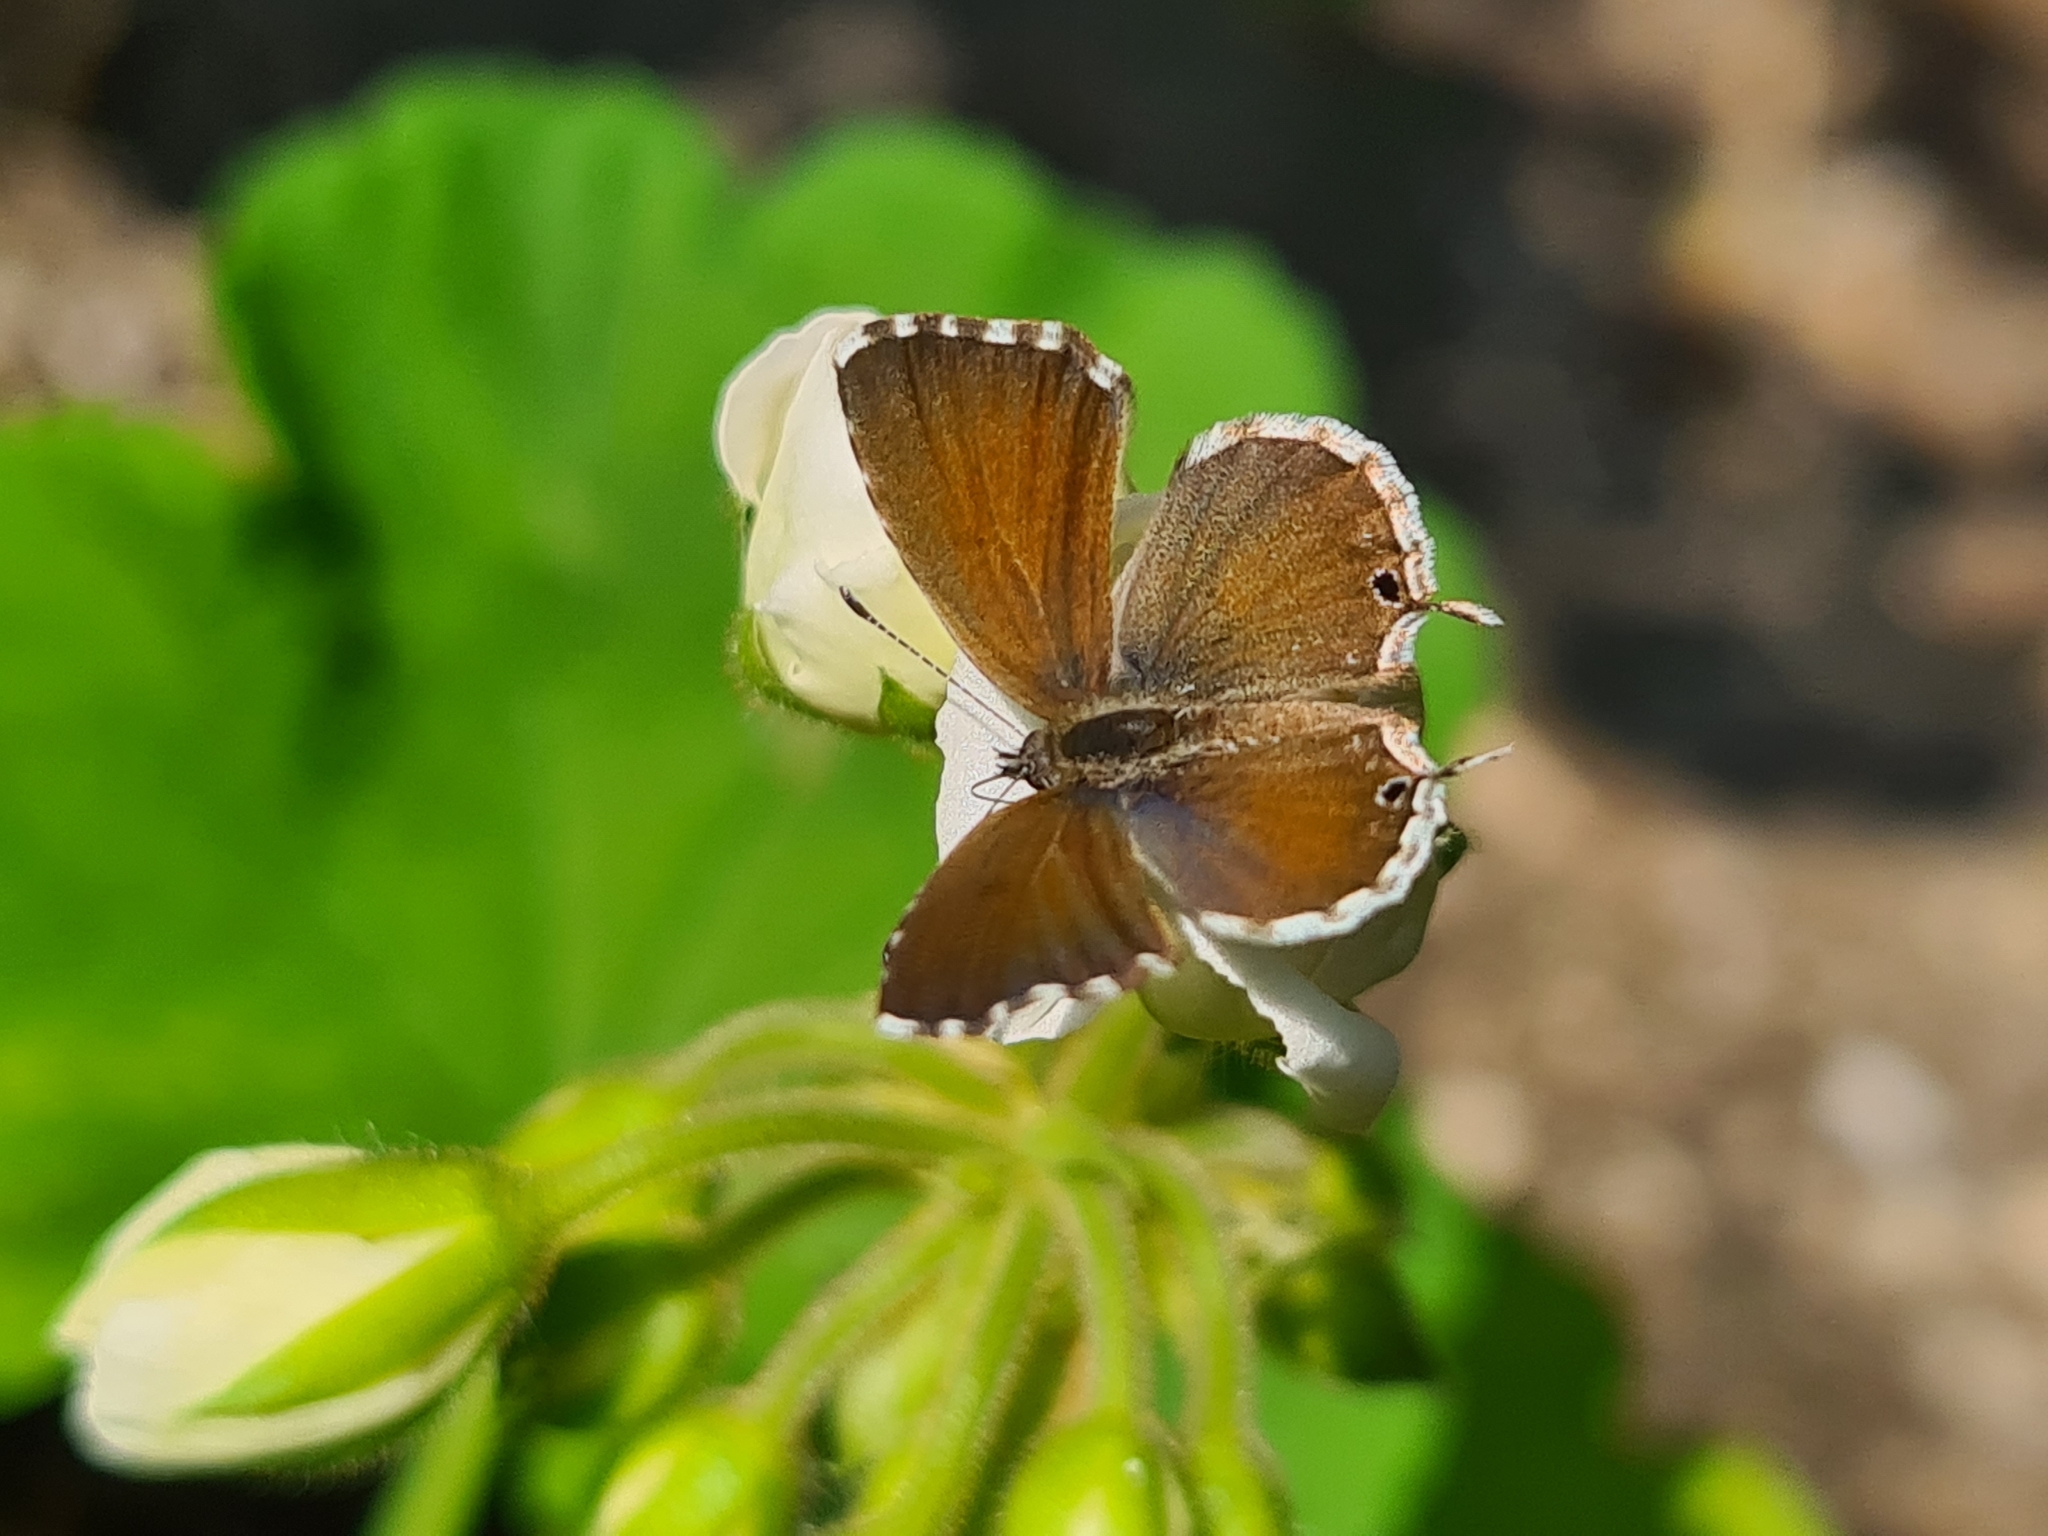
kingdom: Animalia
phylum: Arthropoda
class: Insecta
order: Lepidoptera
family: Lycaenidae
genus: Cacyreus
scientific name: Cacyreus marshalli
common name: Geranium bronze
